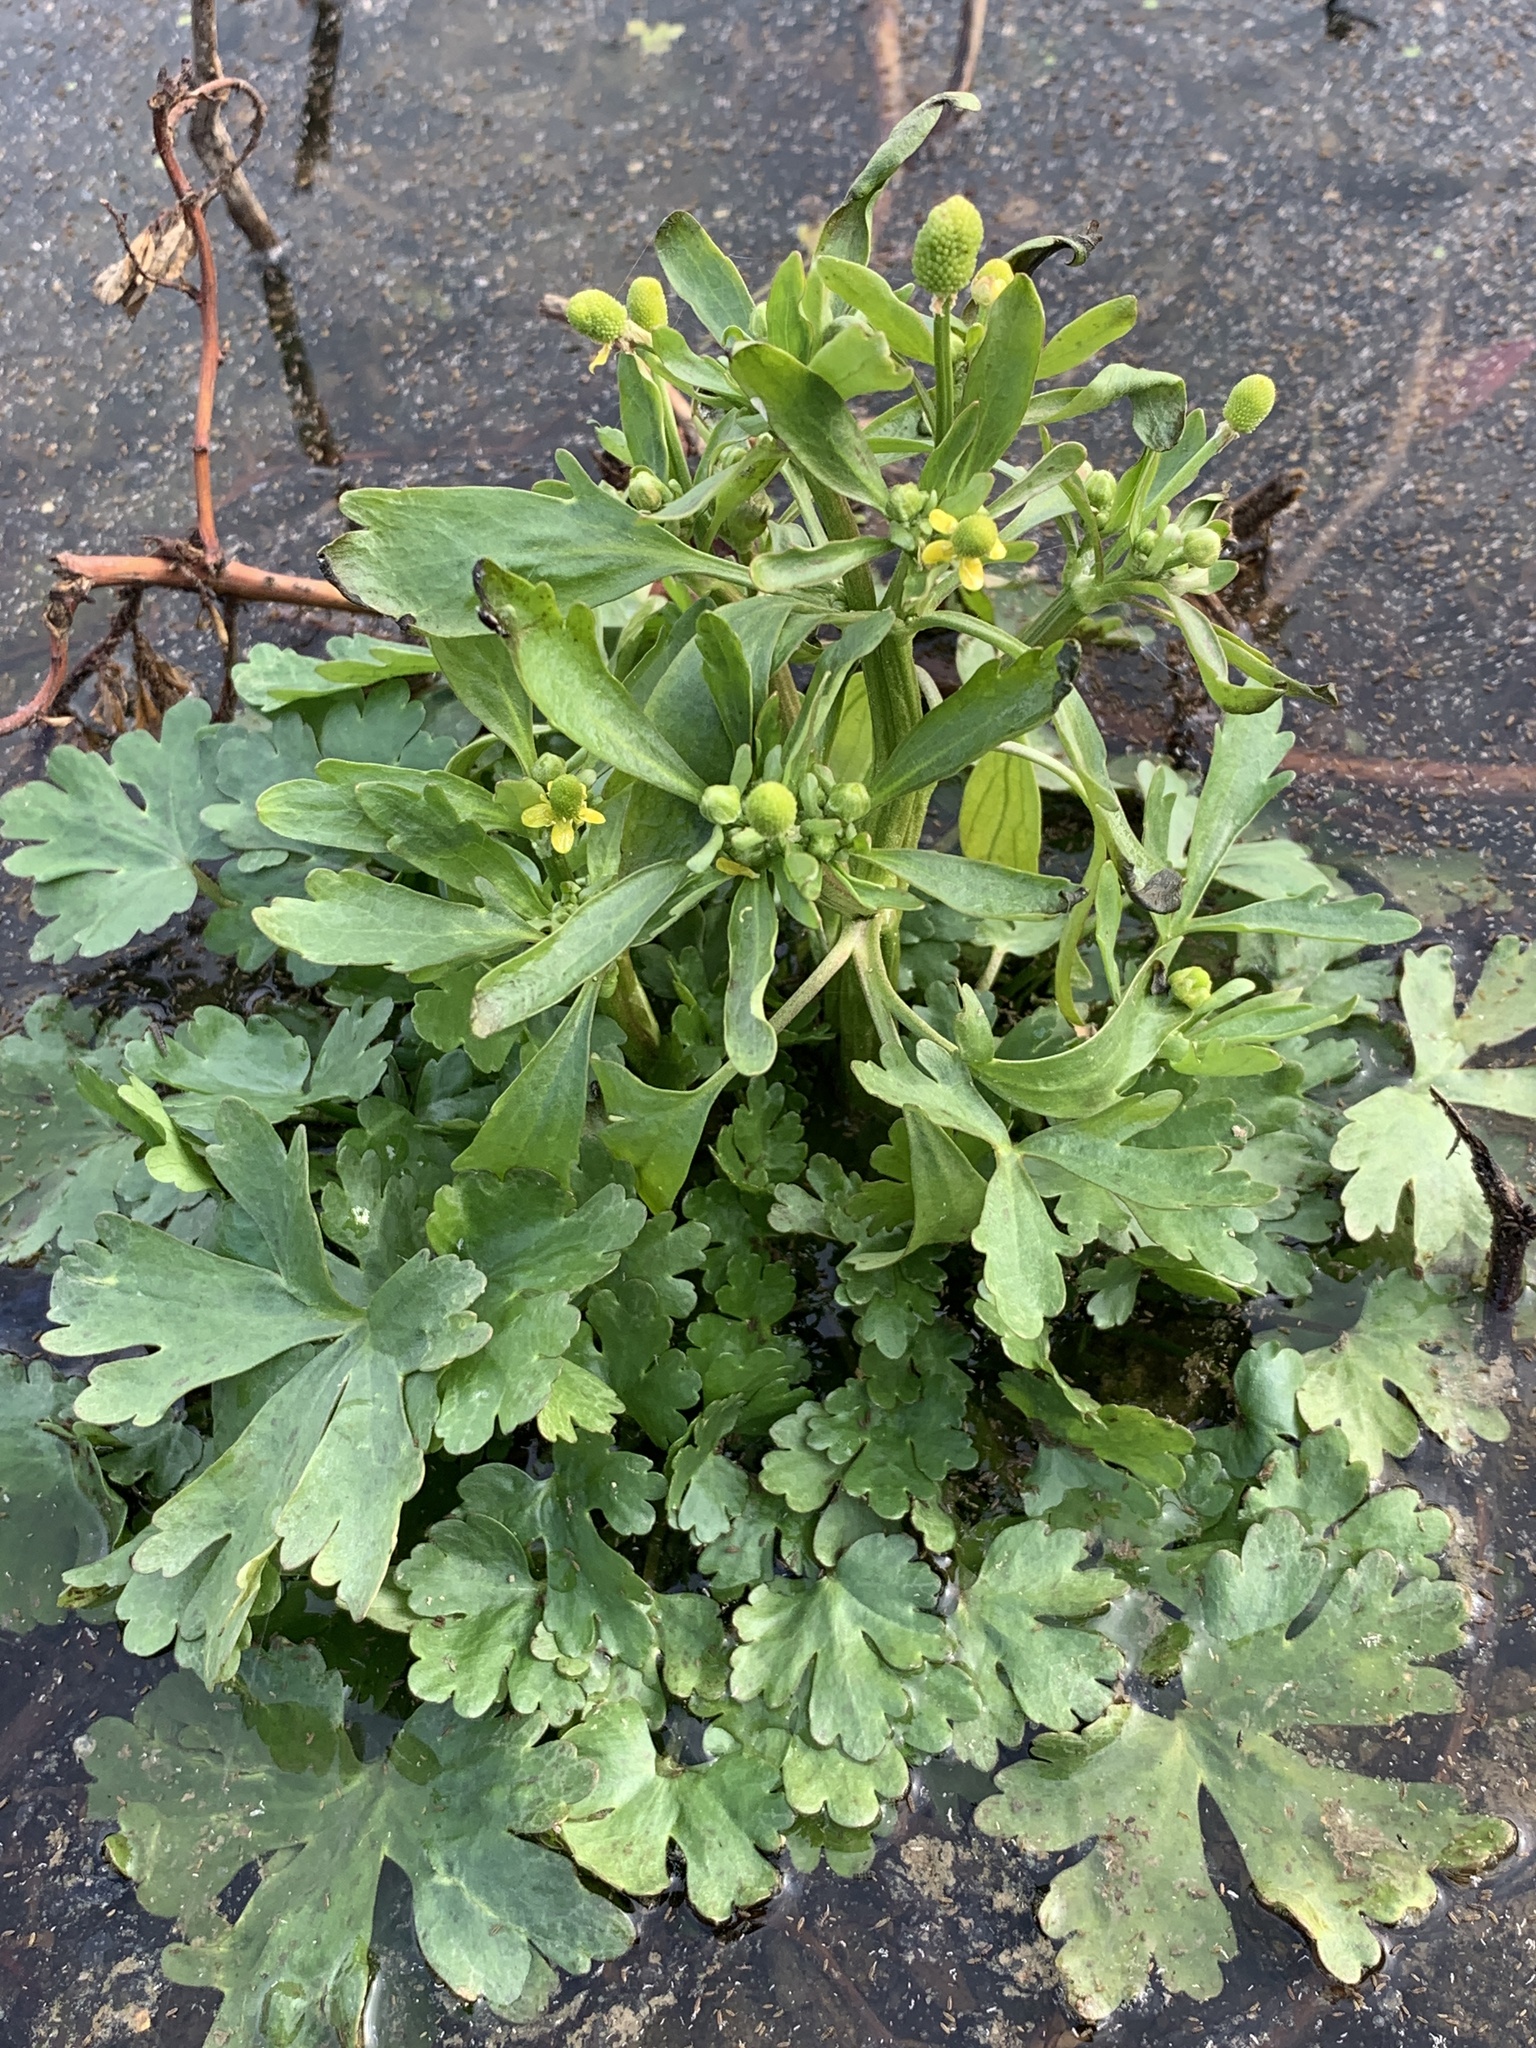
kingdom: Plantae
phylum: Tracheophyta
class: Magnoliopsida
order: Ranunculales
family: Ranunculaceae
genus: Ranunculus
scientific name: Ranunculus sceleratus
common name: Celery-leaved buttercup
